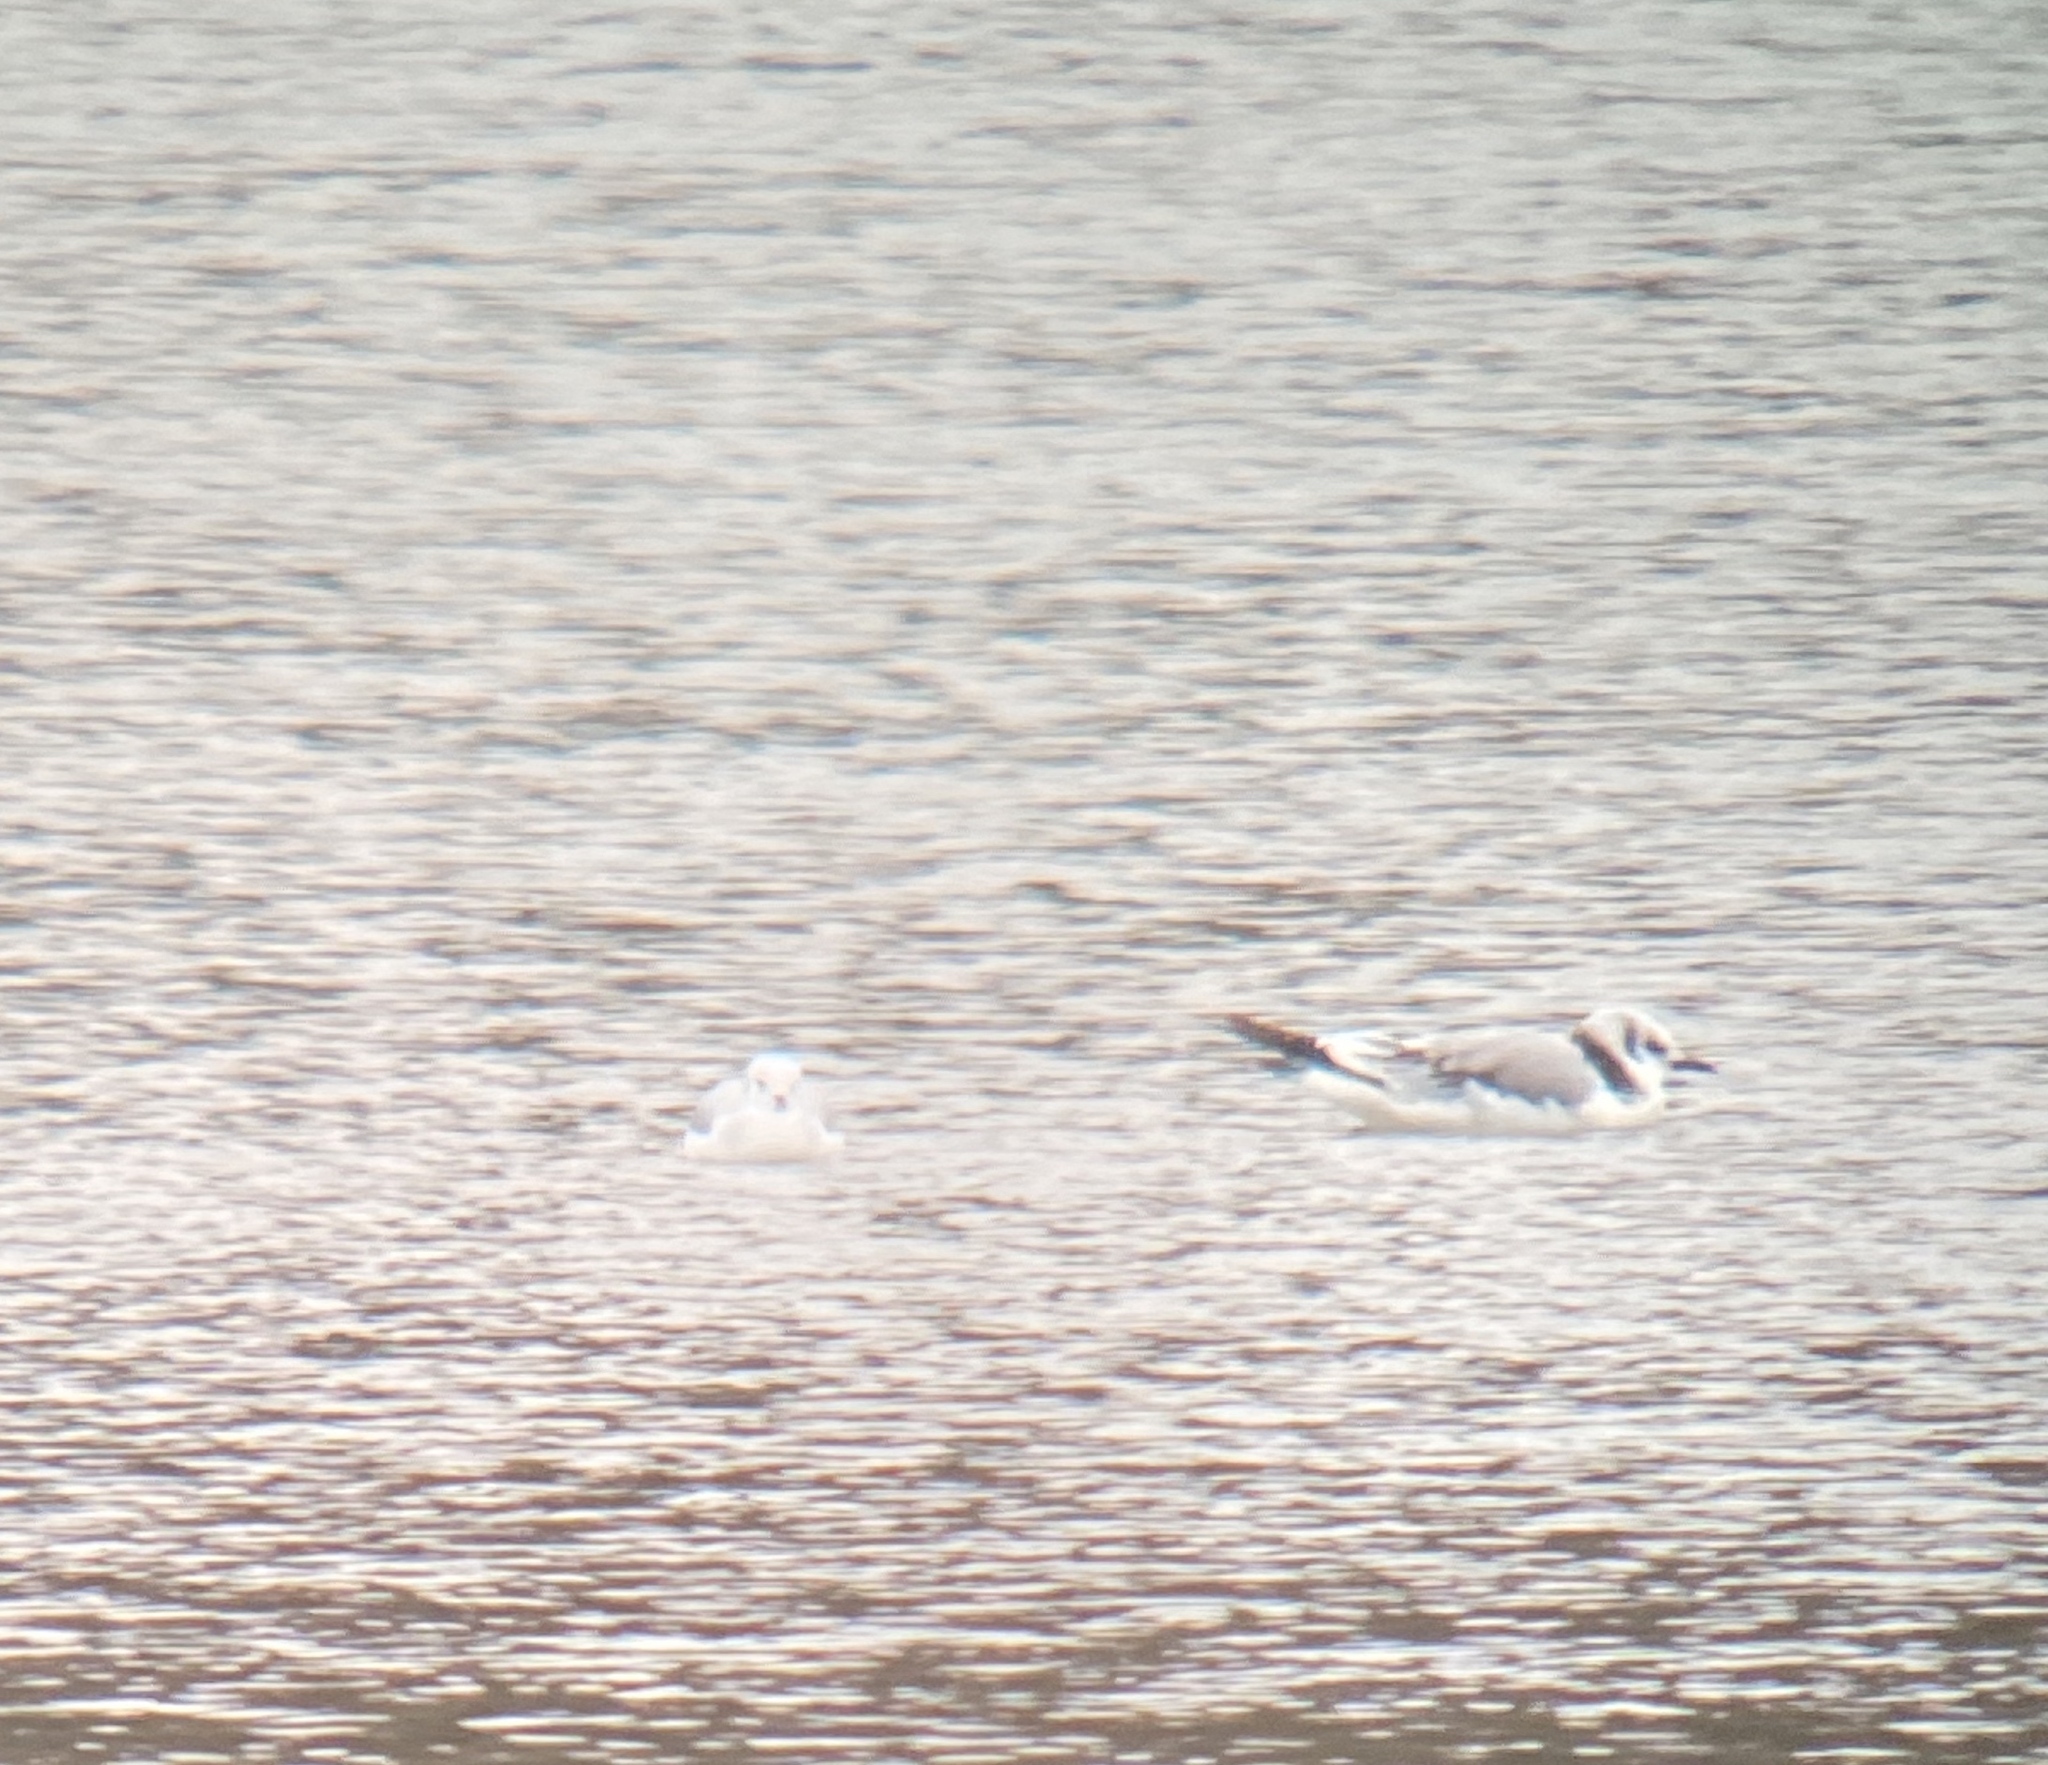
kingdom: Animalia
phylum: Chordata
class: Aves
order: Charadriiformes
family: Laridae
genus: Rissa
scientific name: Rissa tridactyla
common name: Black-legged kittiwake
